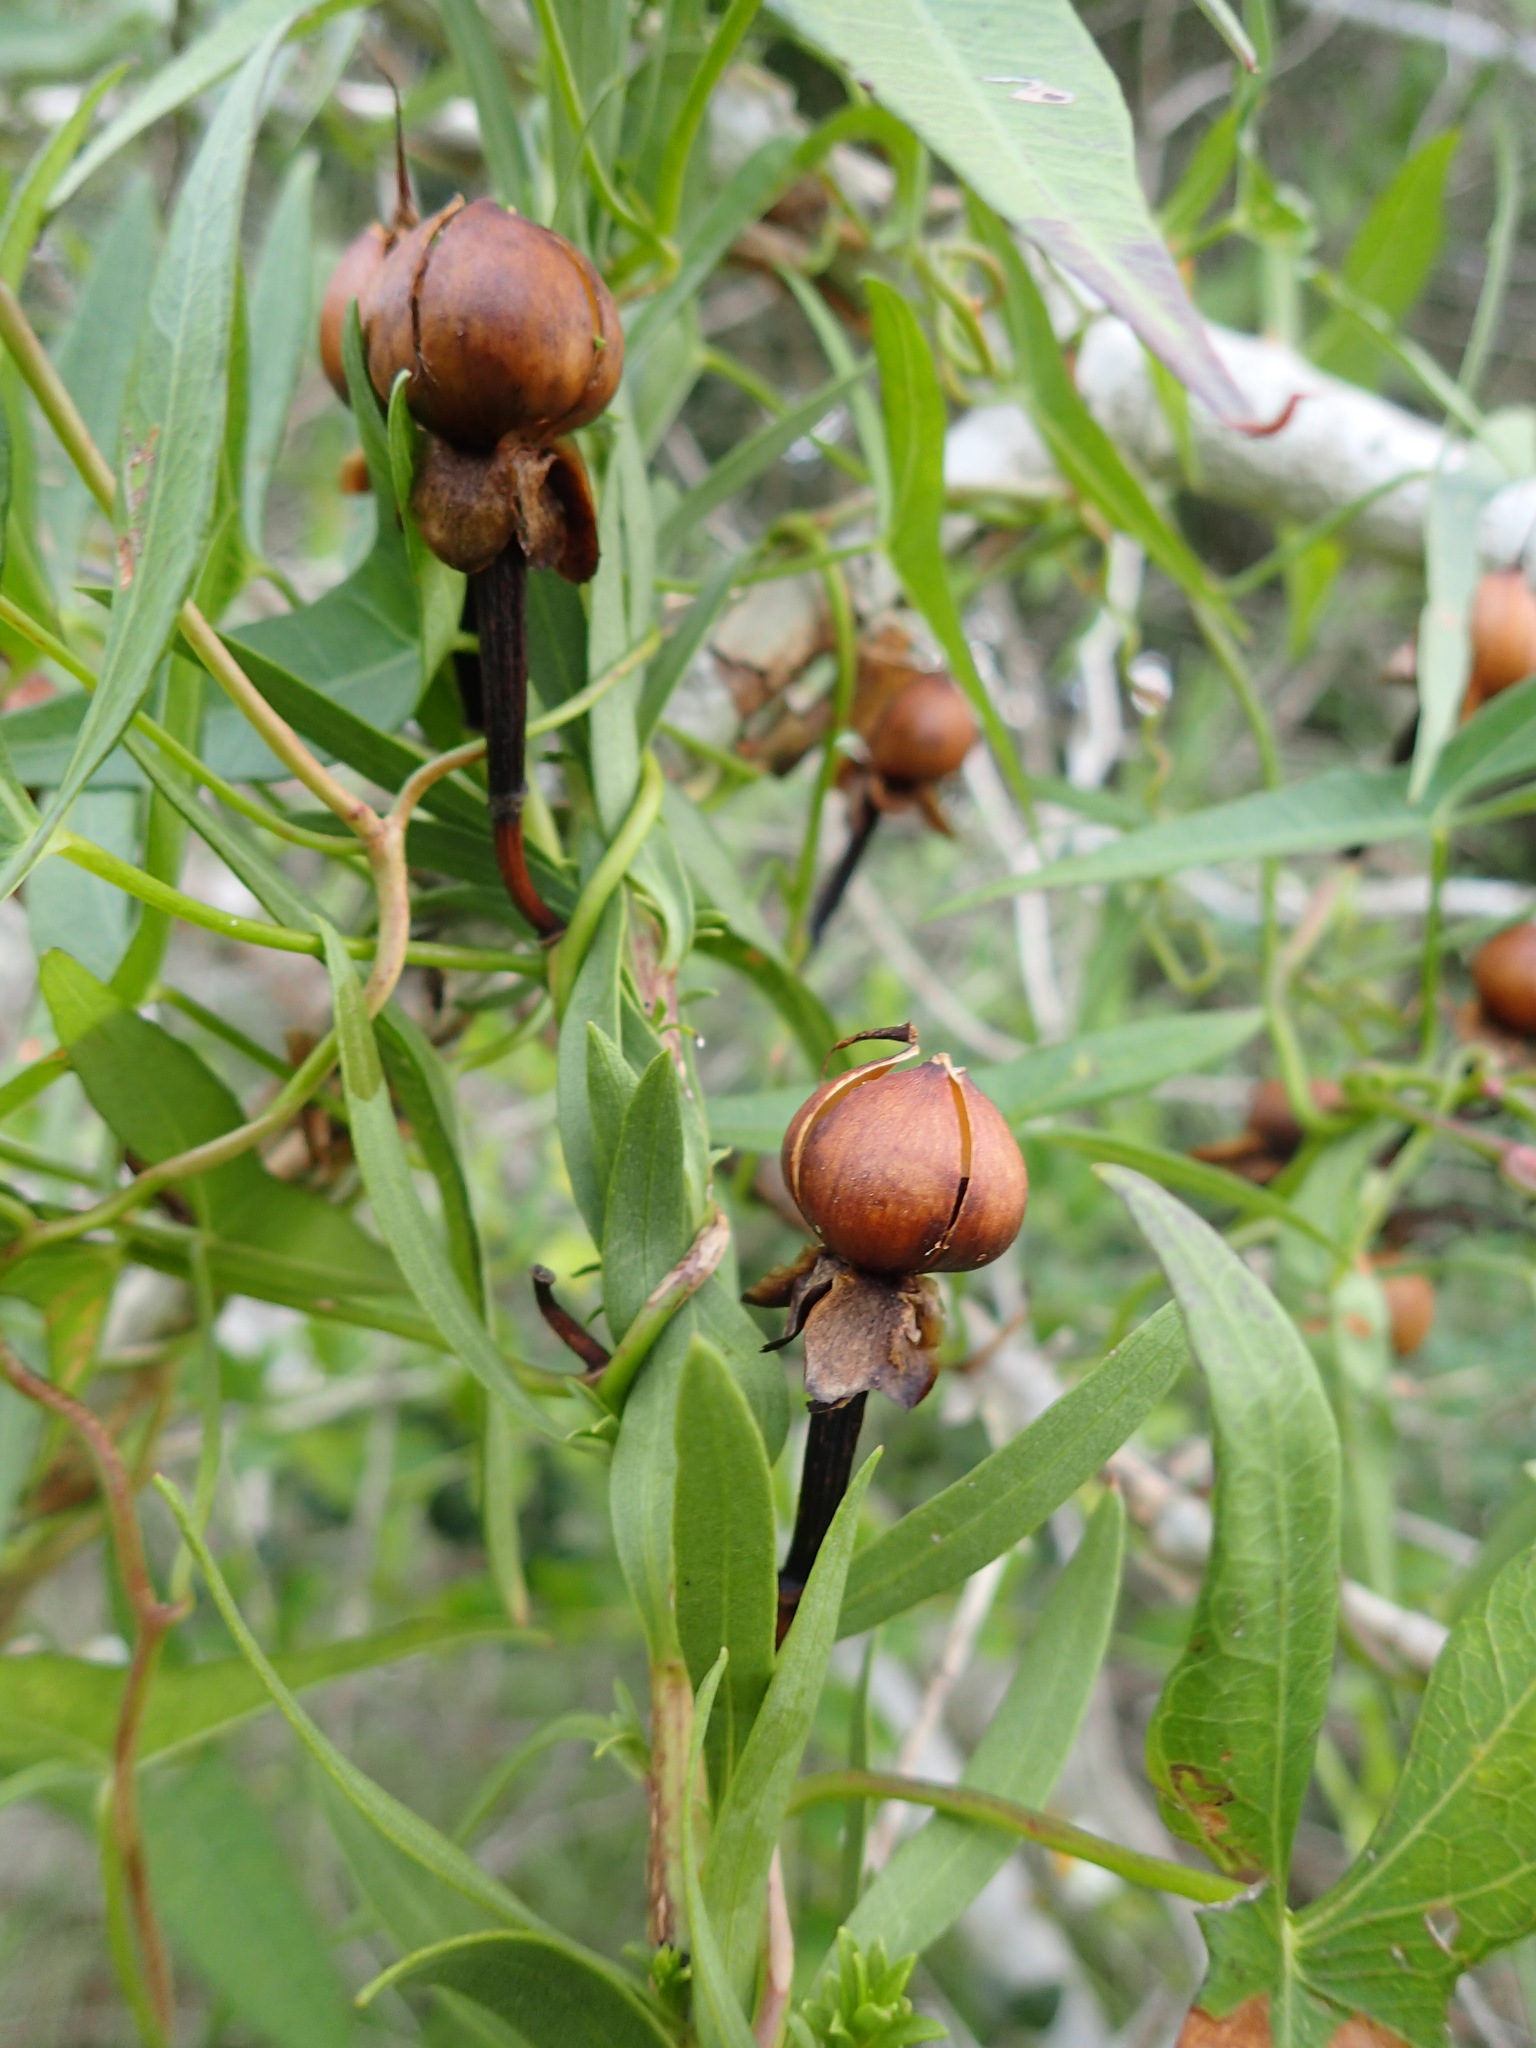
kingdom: Plantae
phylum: Tracheophyta
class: Magnoliopsida
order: Solanales
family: Convolvulaceae
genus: Ipomoea
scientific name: Ipomoea sagittata
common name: Saltmarsh morning glory
